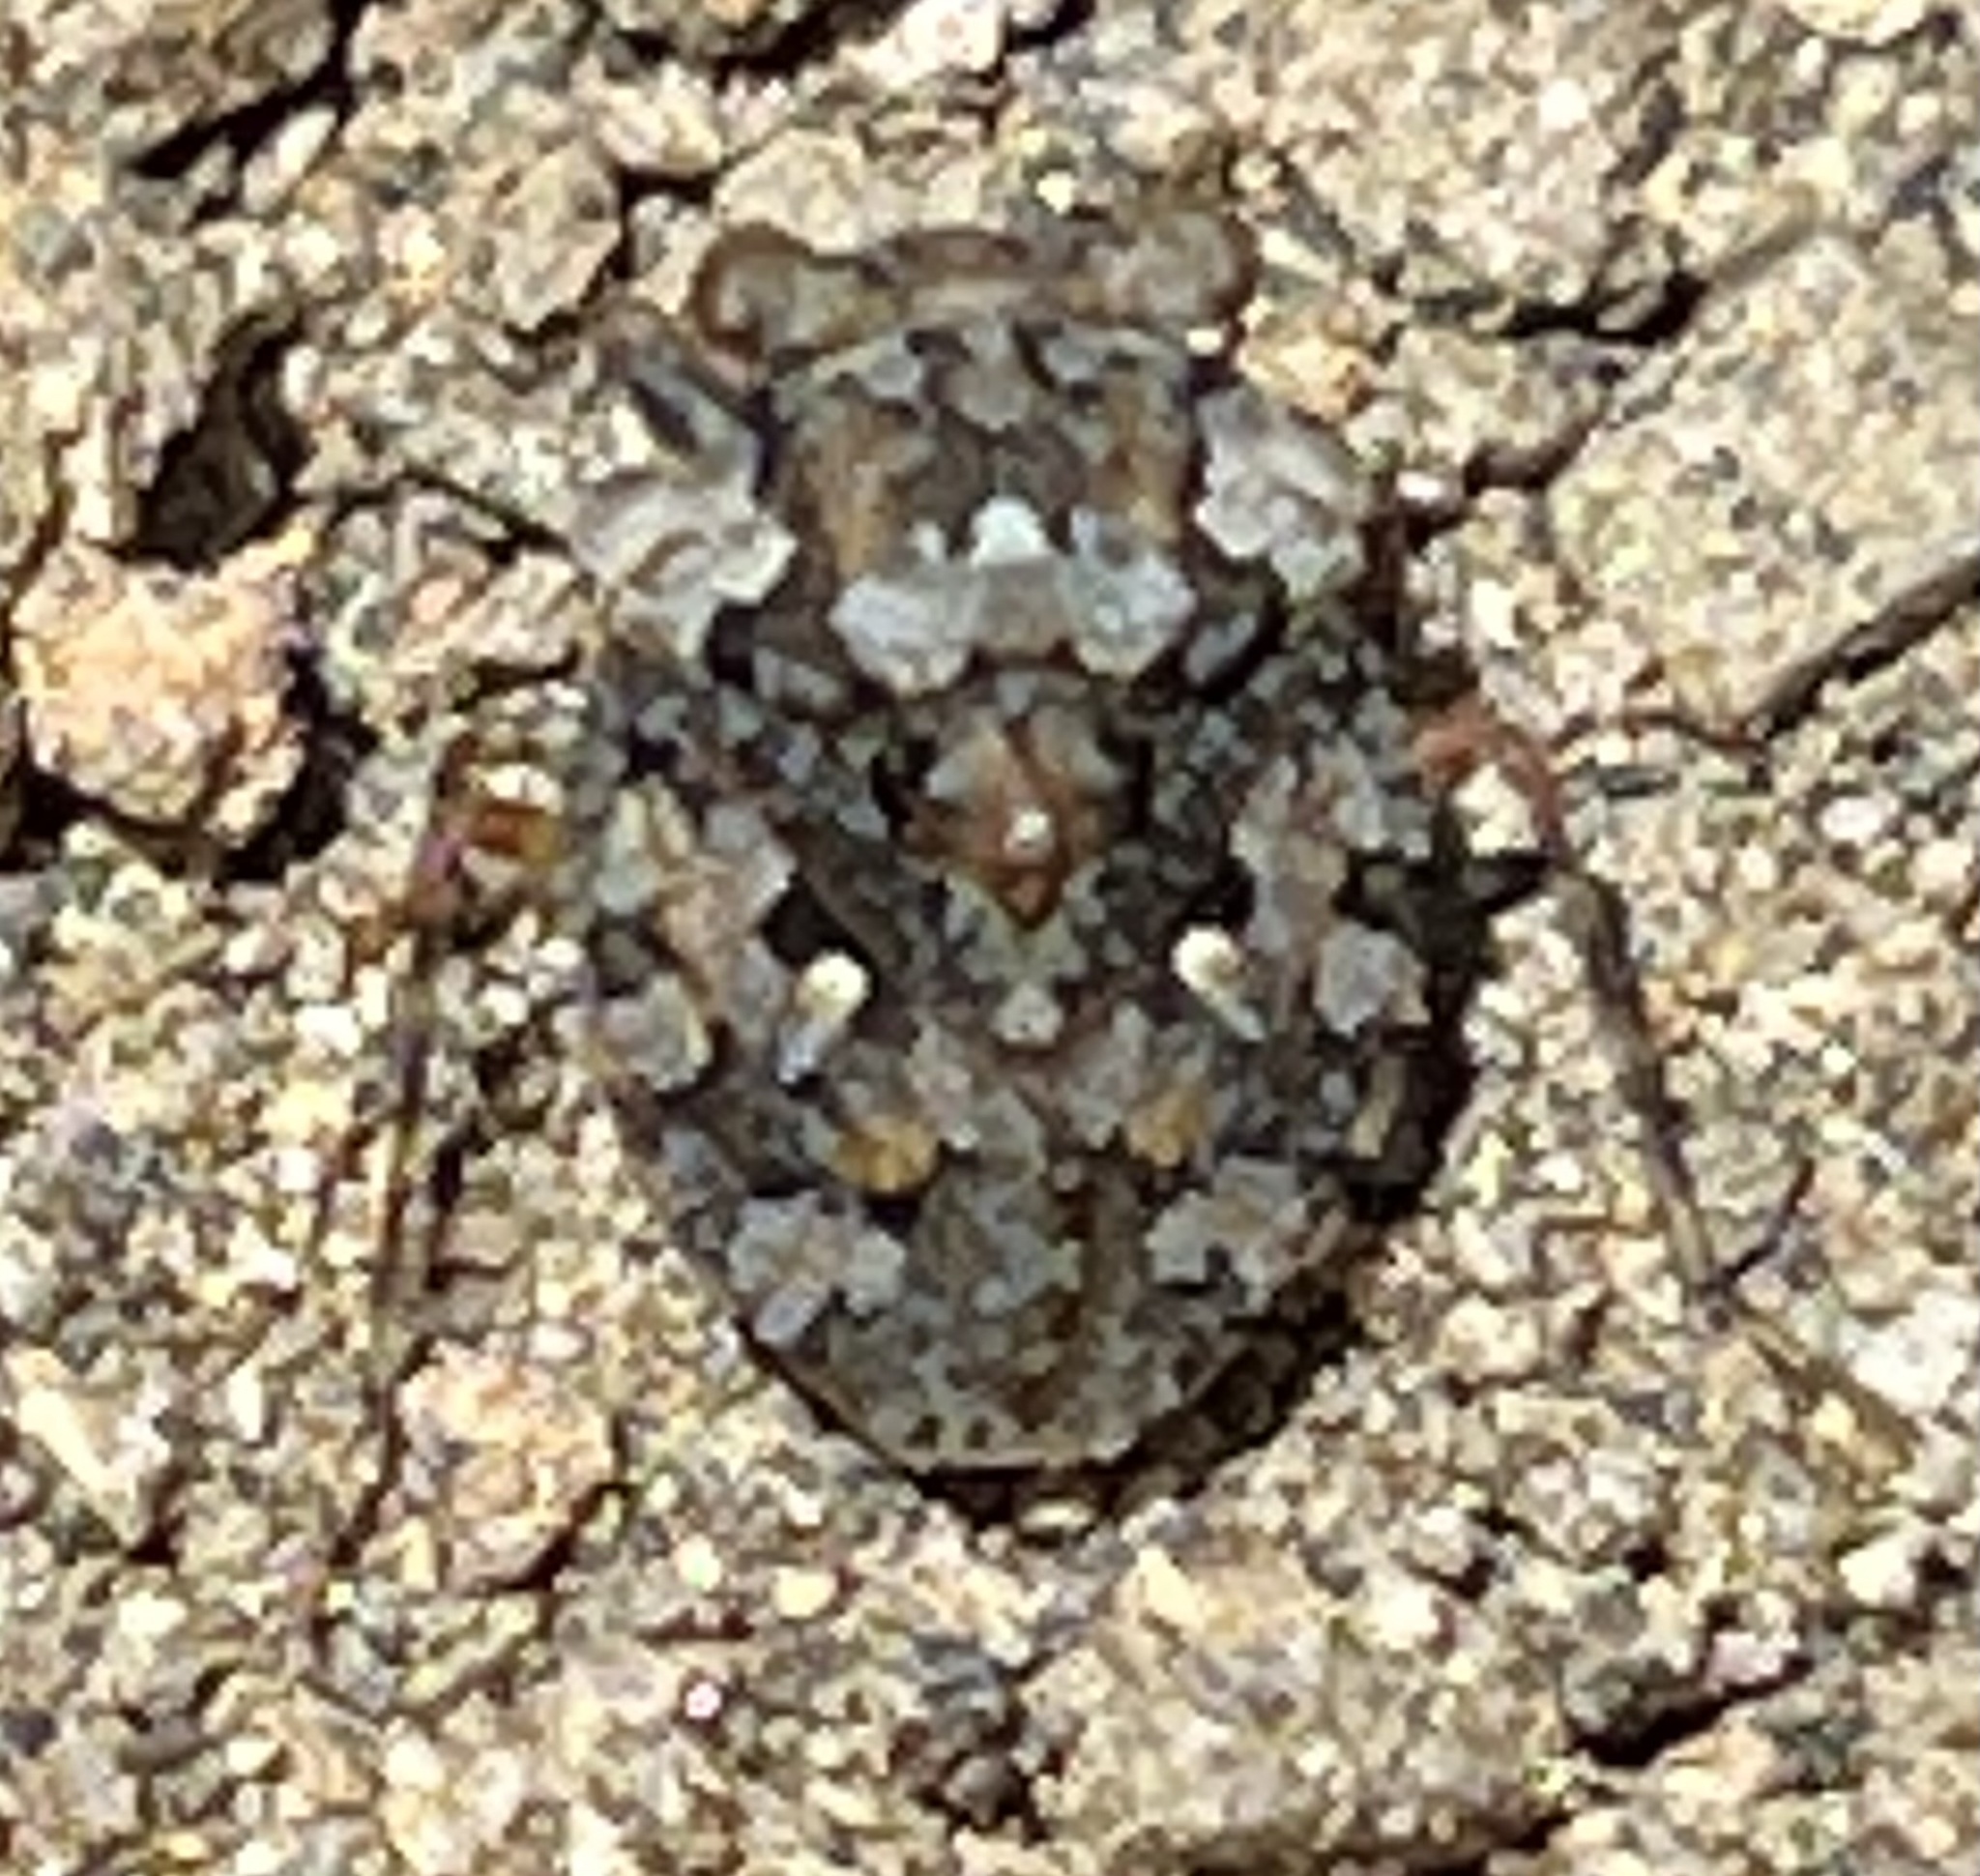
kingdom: Animalia
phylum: Arthropoda
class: Insecta
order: Hemiptera
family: Gelastocoridae
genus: Gelastocoris
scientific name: Gelastocoris oculatus
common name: Toad bug
